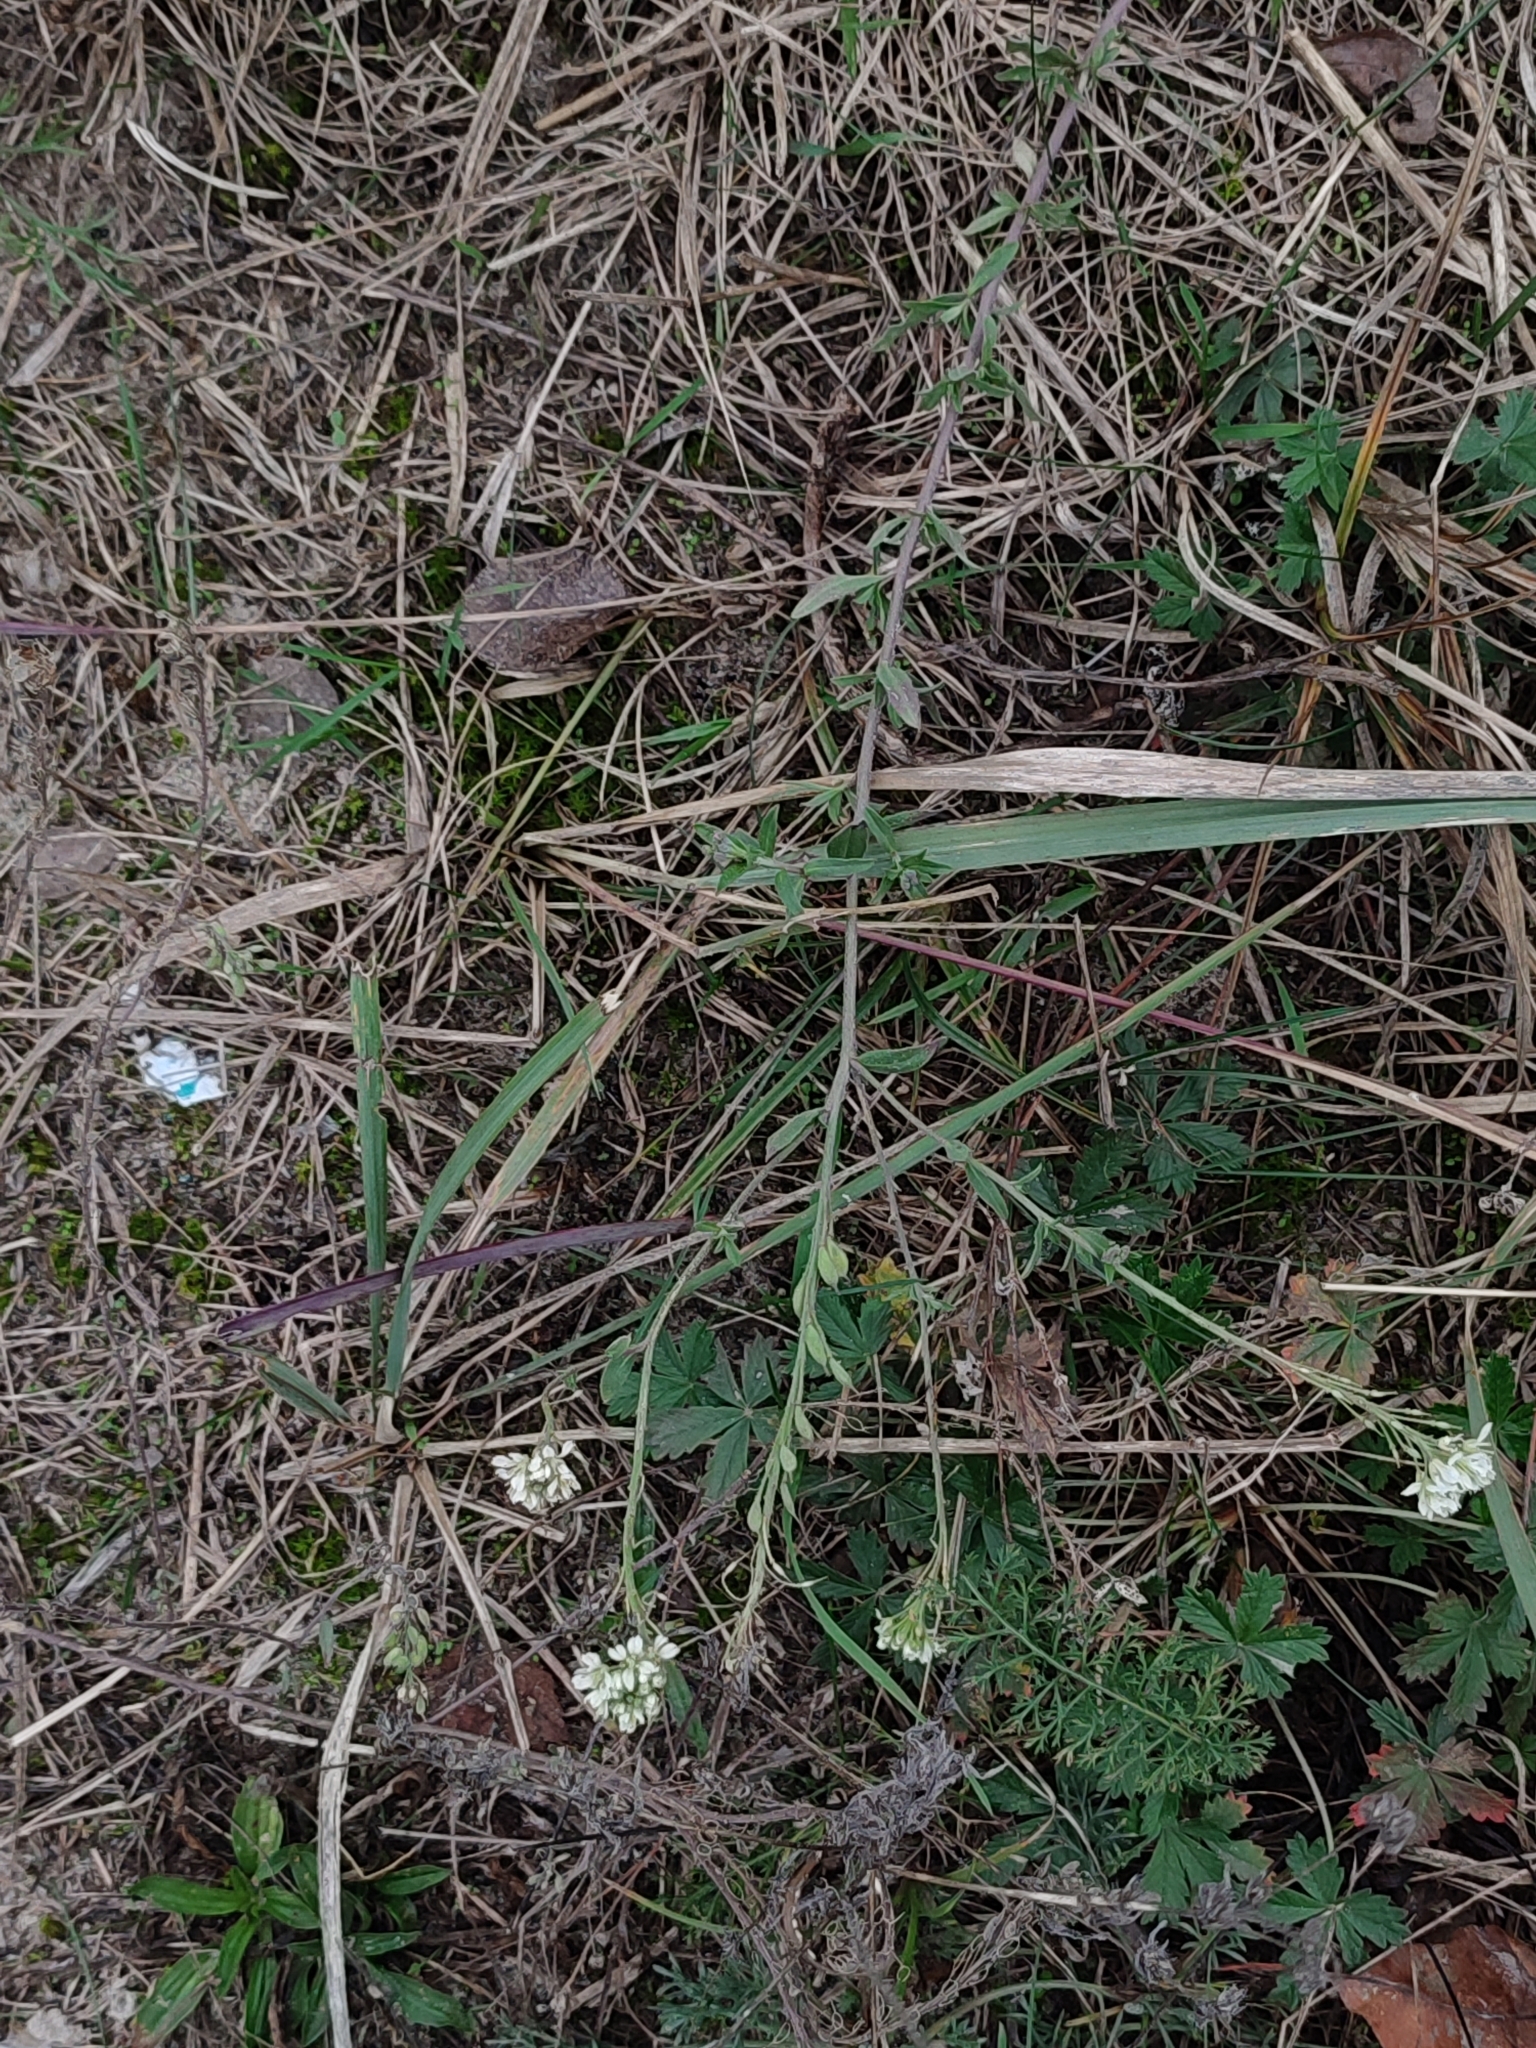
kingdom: Plantae
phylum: Tracheophyta
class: Magnoliopsida
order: Brassicales
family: Brassicaceae
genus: Berteroa
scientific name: Berteroa incana
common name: Hoary alison
